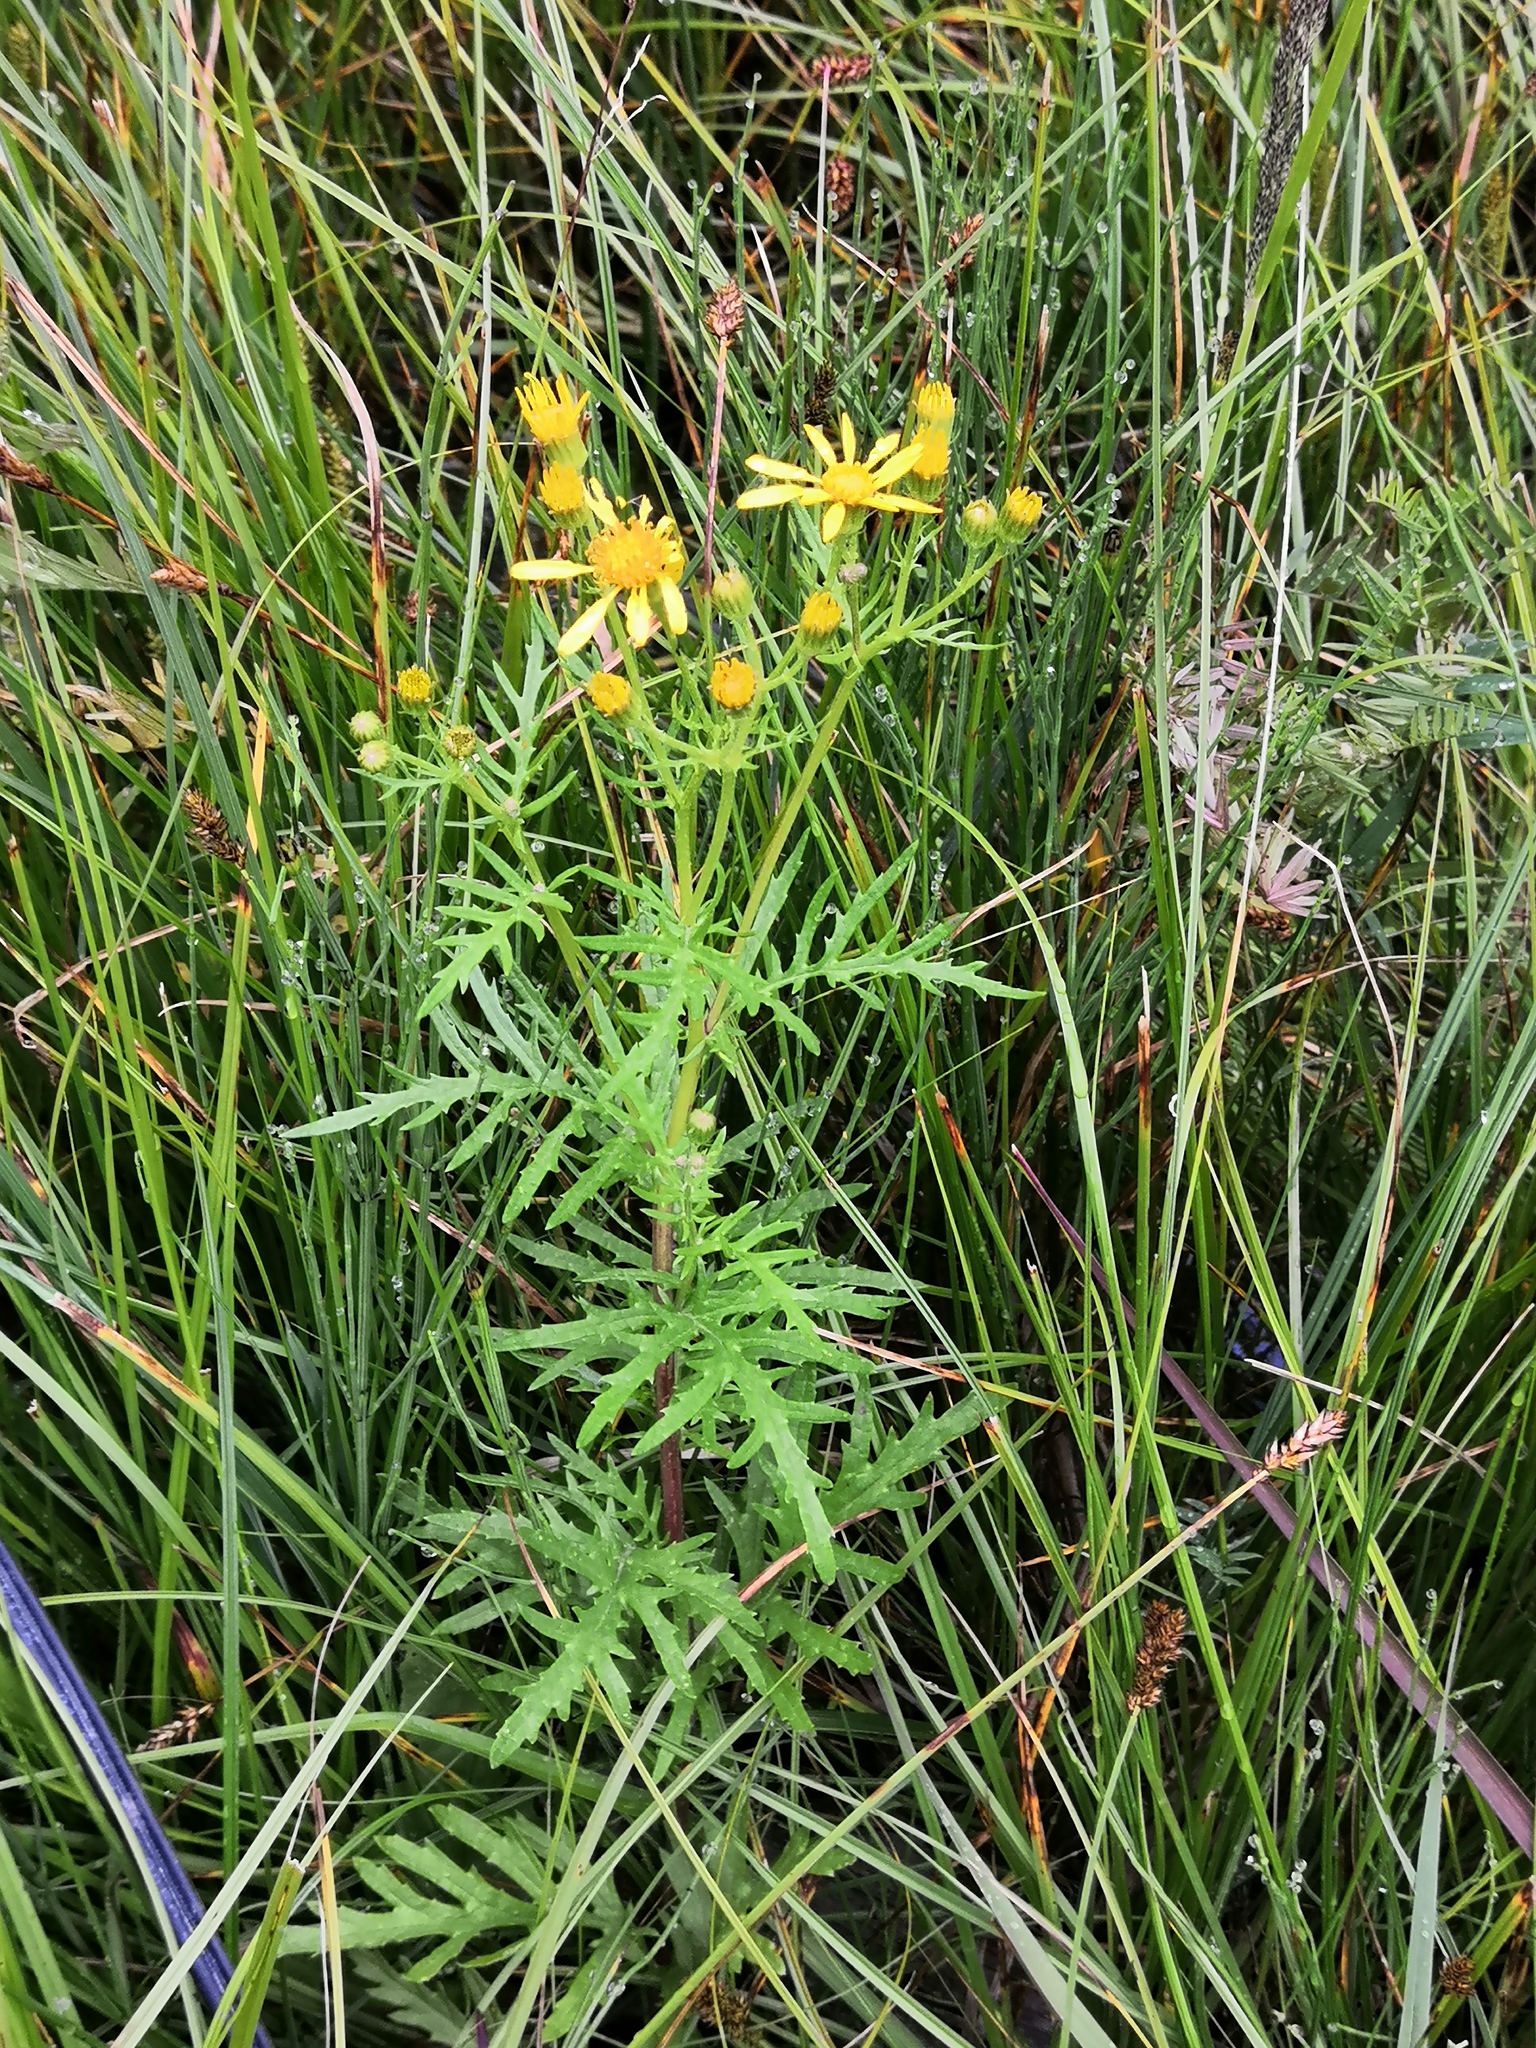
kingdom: Plantae
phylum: Tracheophyta
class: Magnoliopsida
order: Asterales
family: Asteraceae
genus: Jacobaea
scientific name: Jacobaea erucifolia
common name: Hoary ragwort
